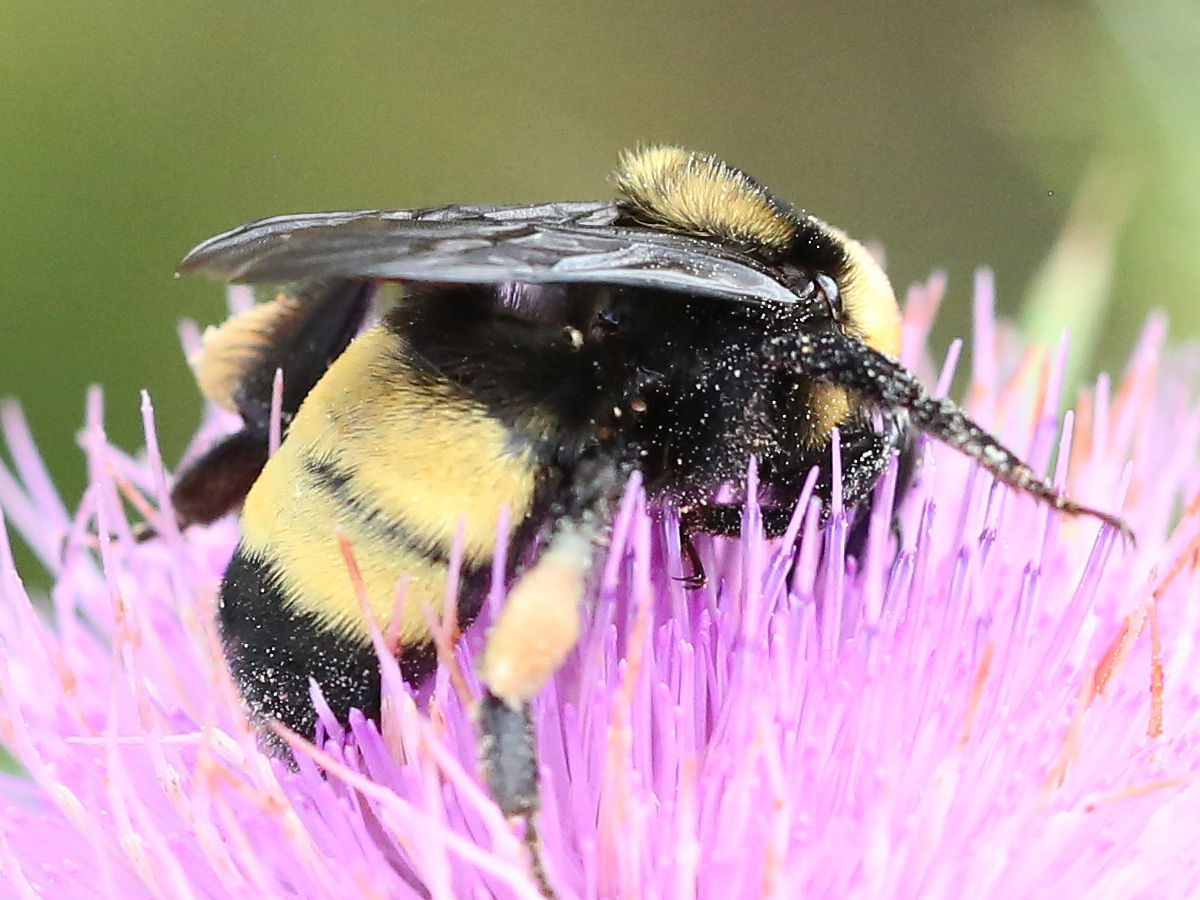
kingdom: Animalia
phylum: Arthropoda
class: Insecta
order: Hymenoptera
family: Apidae
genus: Bombus
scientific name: Bombus auricomus
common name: Black and gold bumble bee
